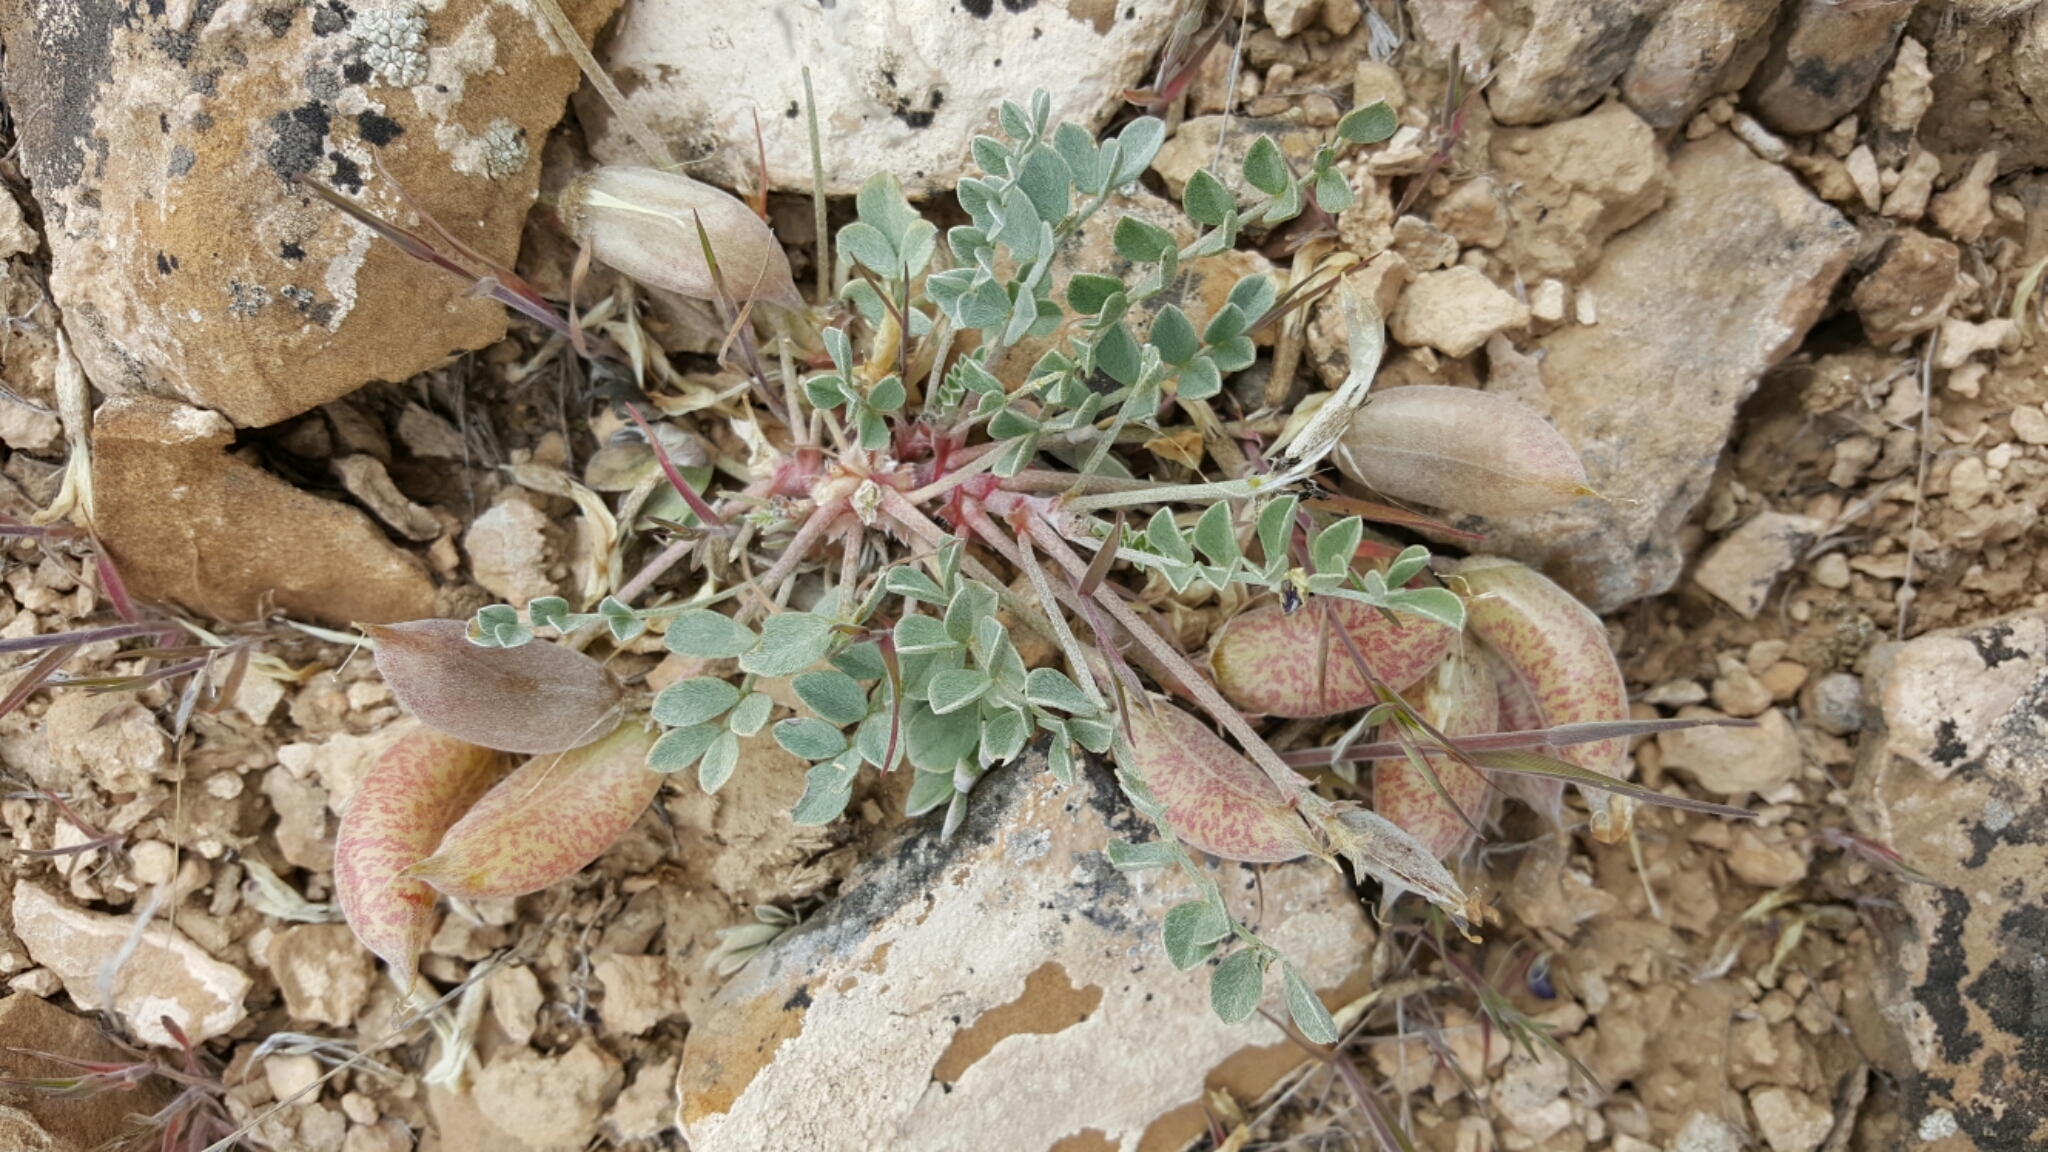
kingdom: Plantae
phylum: Tracheophyta
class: Magnoliopsida
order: Fabales
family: Fabaceae
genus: Astragalus
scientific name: Astragalus chamaeleuce
